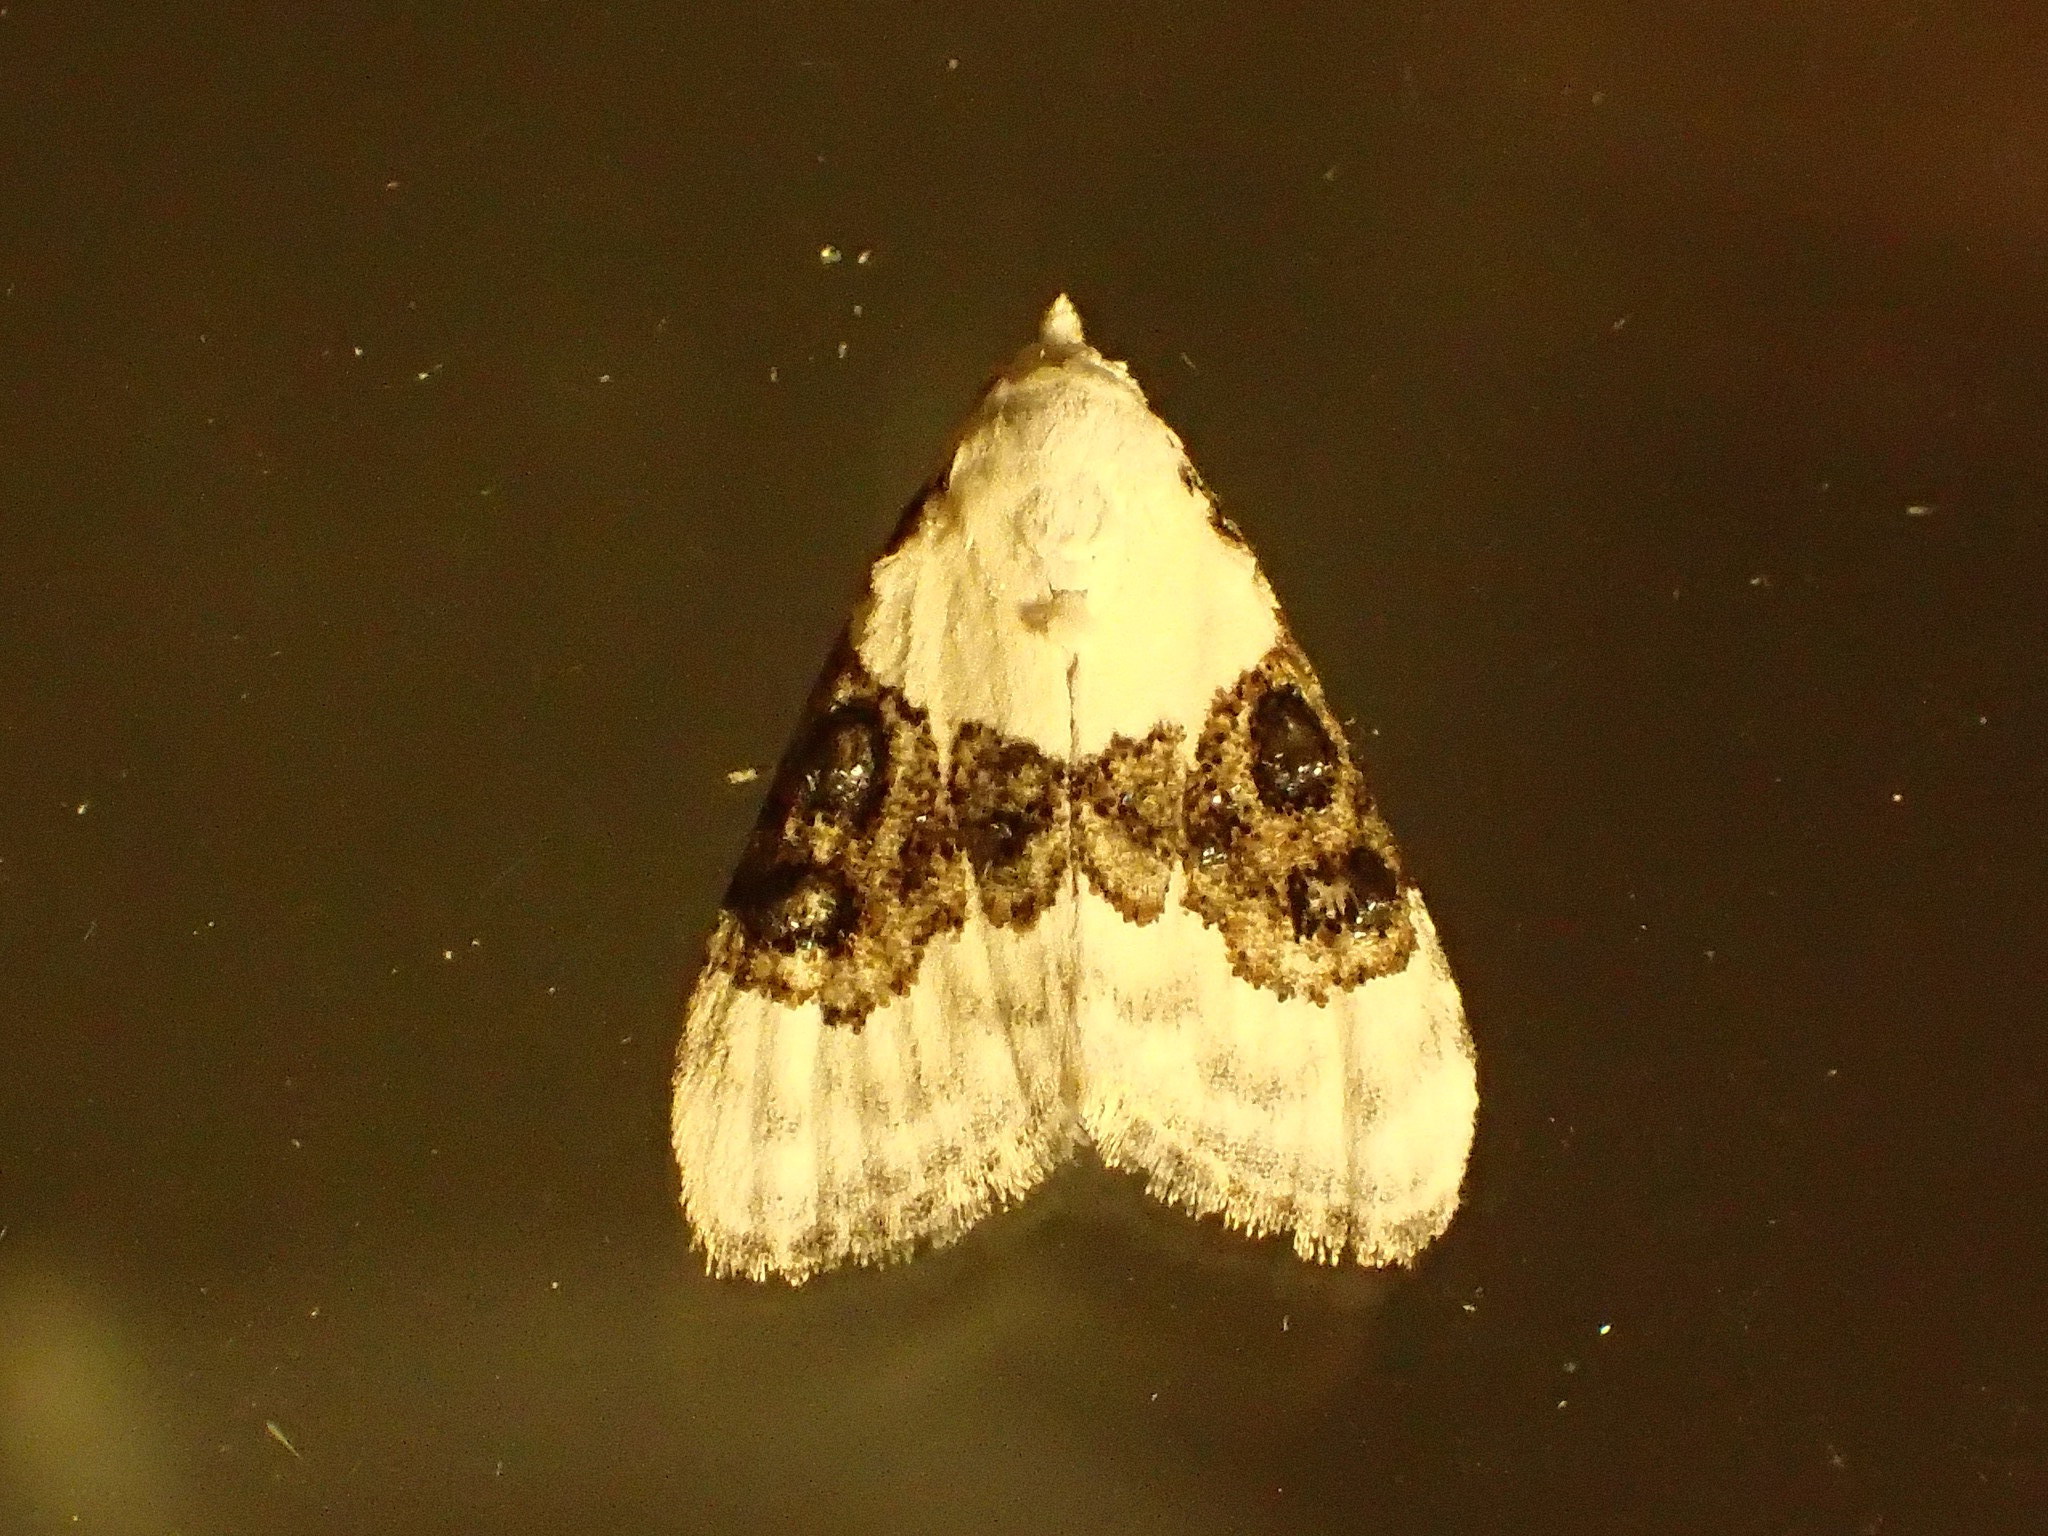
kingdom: Animalia
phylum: Arthropoda
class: Insecta
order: Lepidoptera
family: Nolidae
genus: Nola
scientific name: Nola pustulata
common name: Sharp-blotched nola moth
